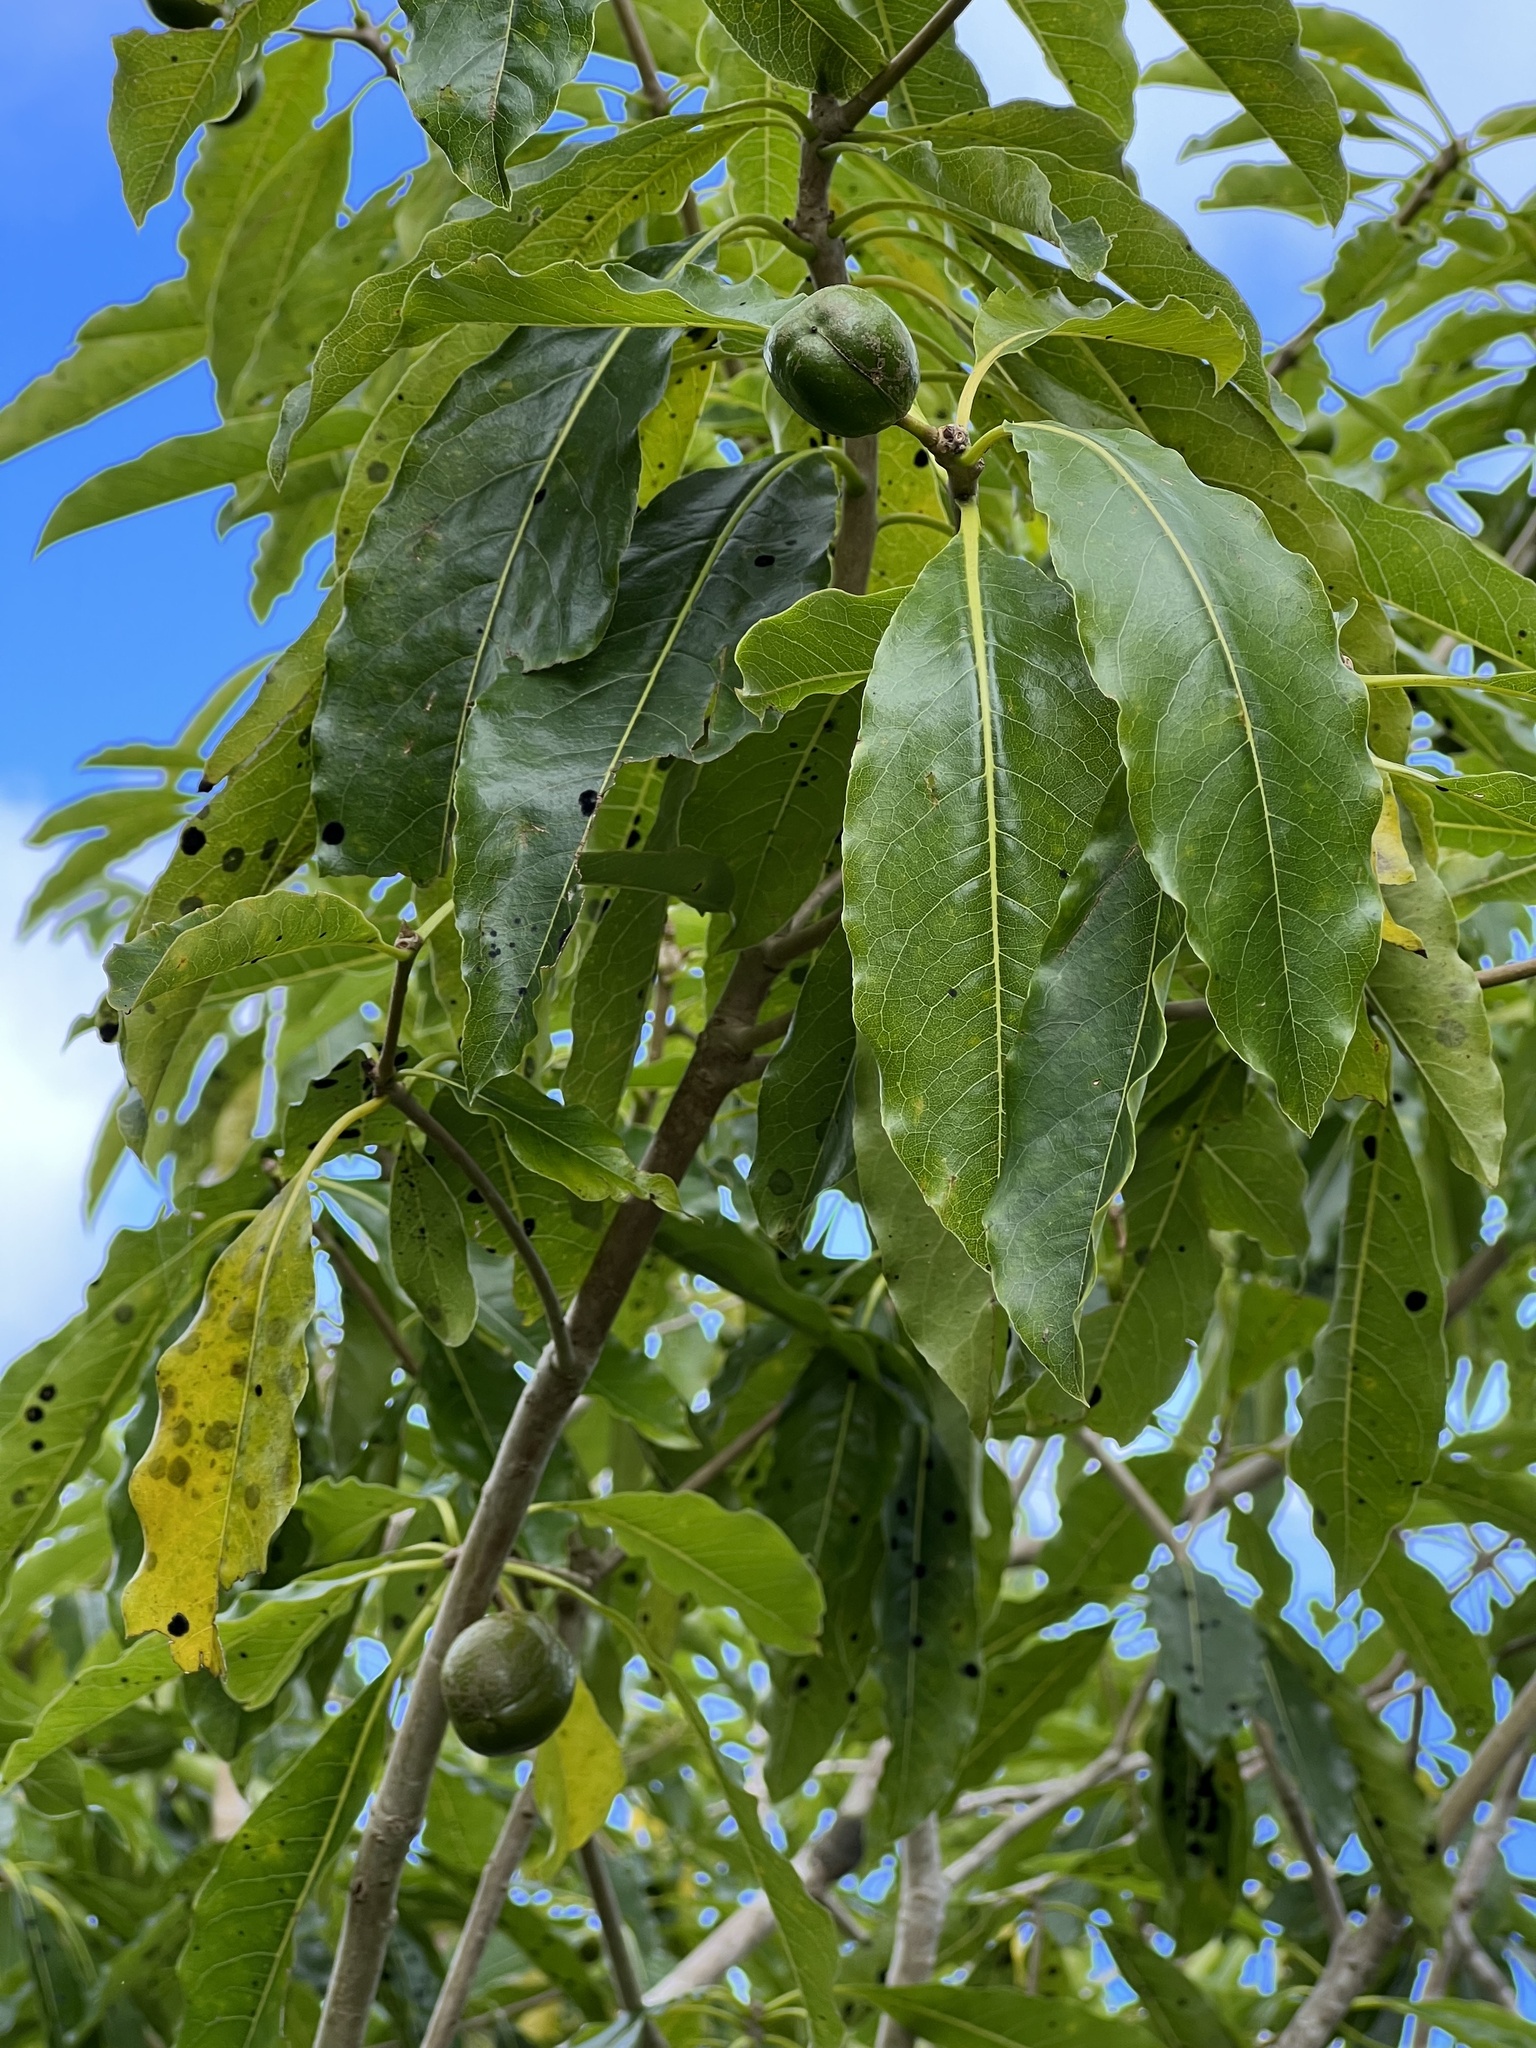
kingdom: Plantae
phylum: Tracheophyta
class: Magnoliopsida
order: Apiales
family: Pittosporaceae
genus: Pittosporum
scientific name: Pittosporum rarotongense
